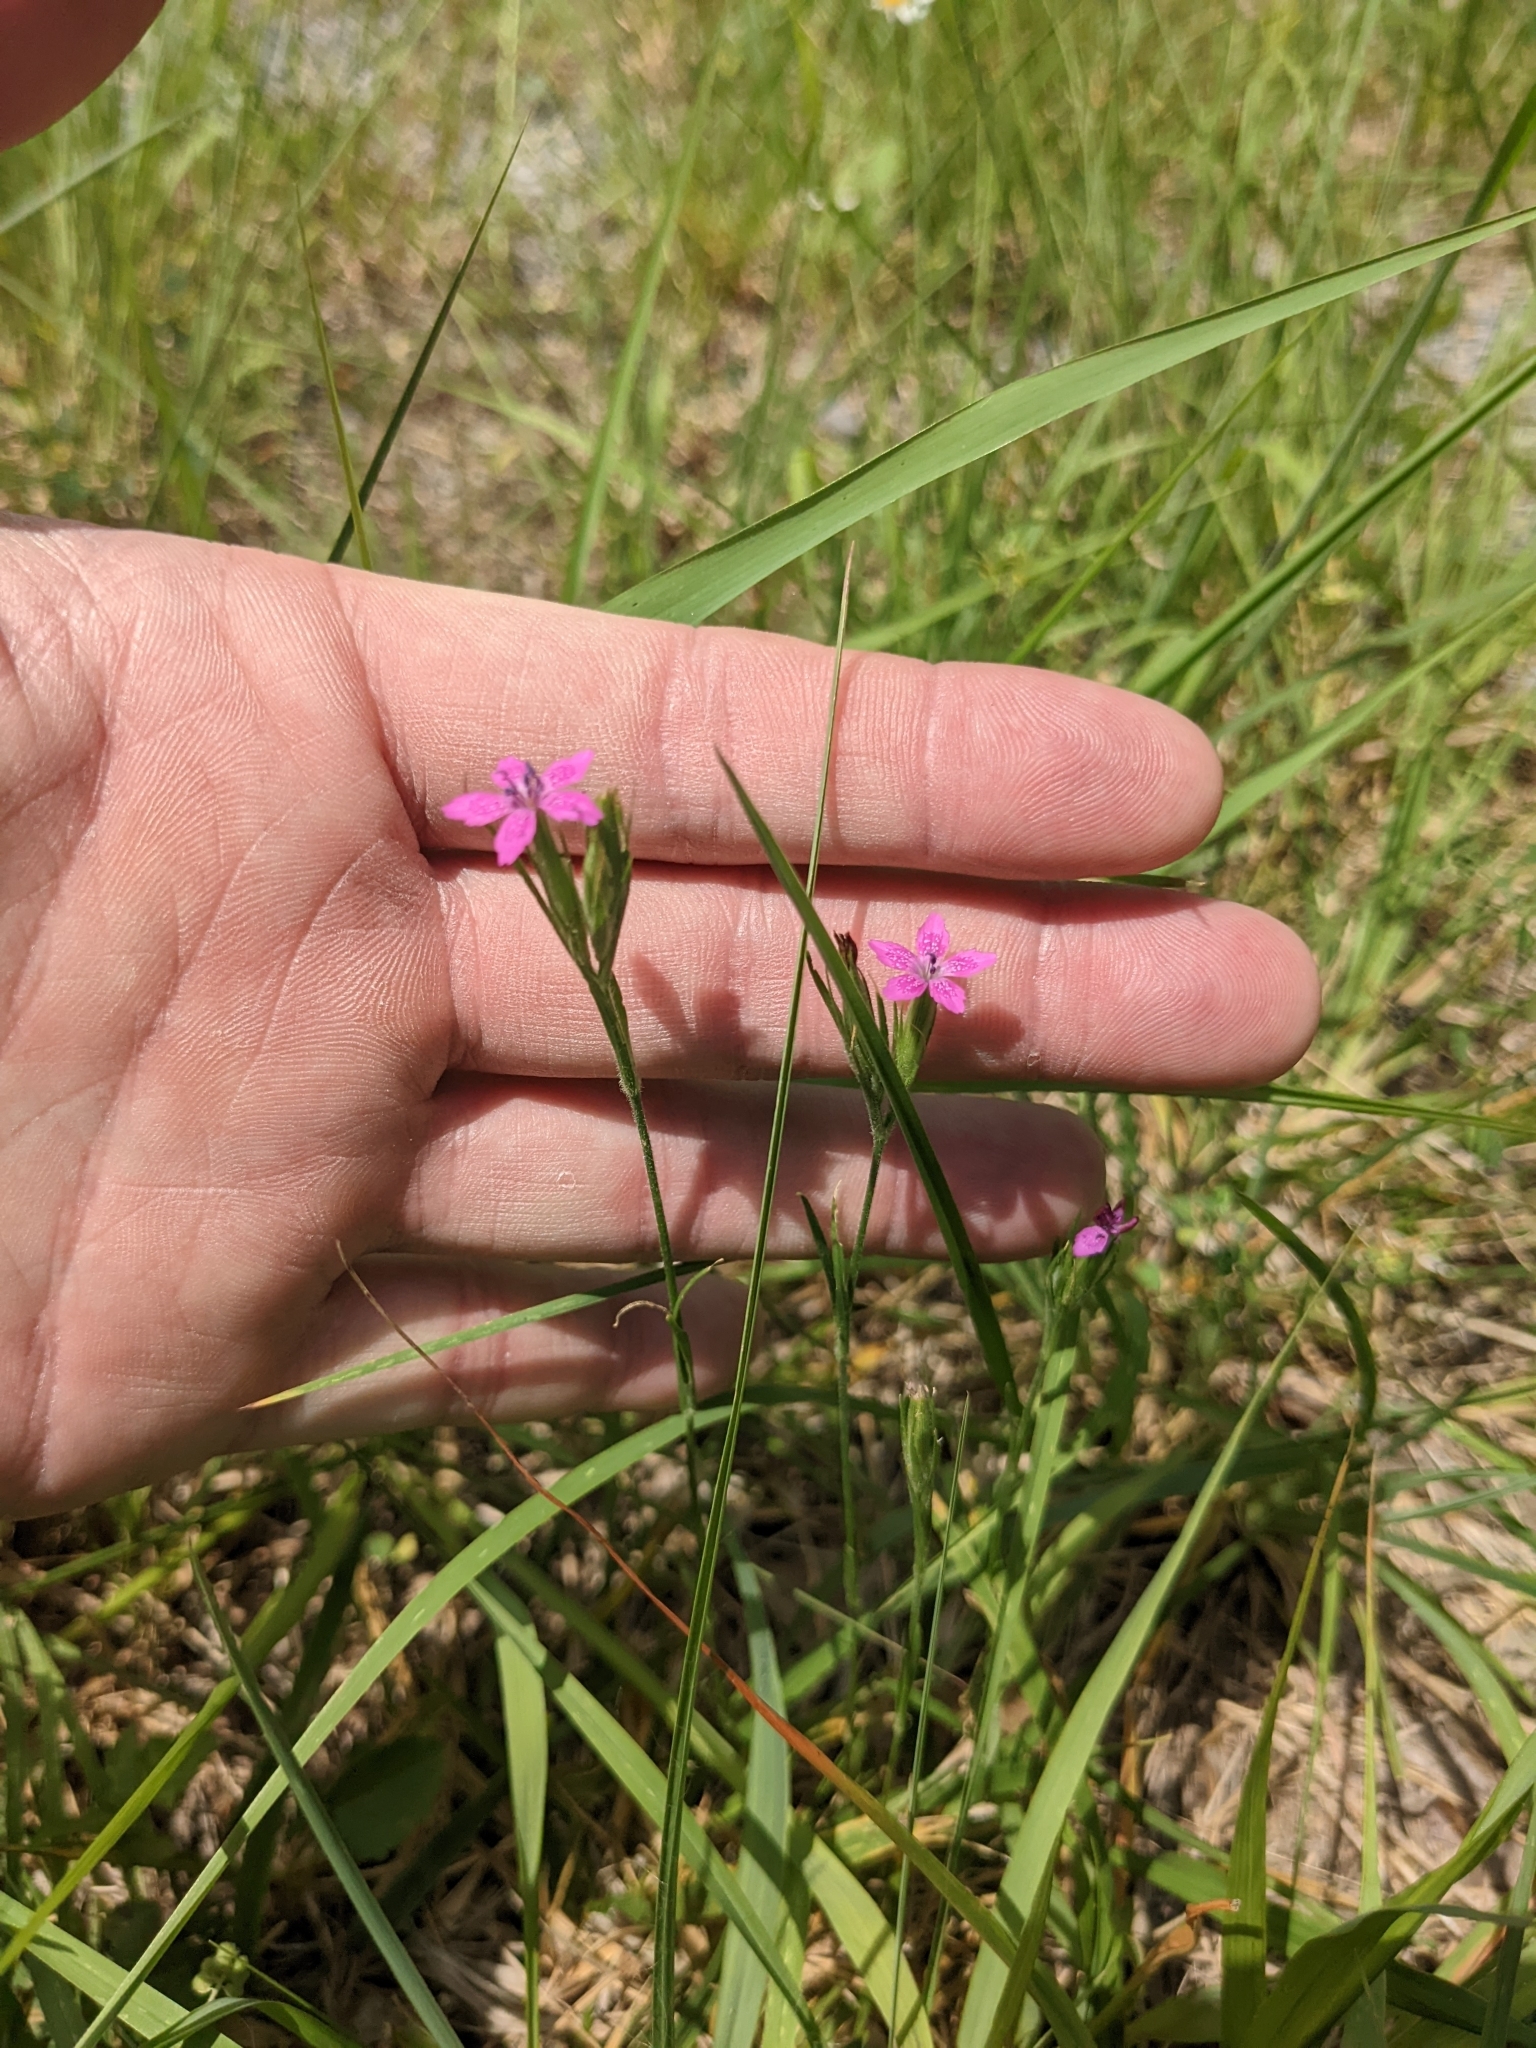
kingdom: Plantae
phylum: Tracheophyta
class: Magnoliopsida
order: Caryophyllales
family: Caryophyllaceae
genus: Dianthus
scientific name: Dianthus armeria
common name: Deptford pink
